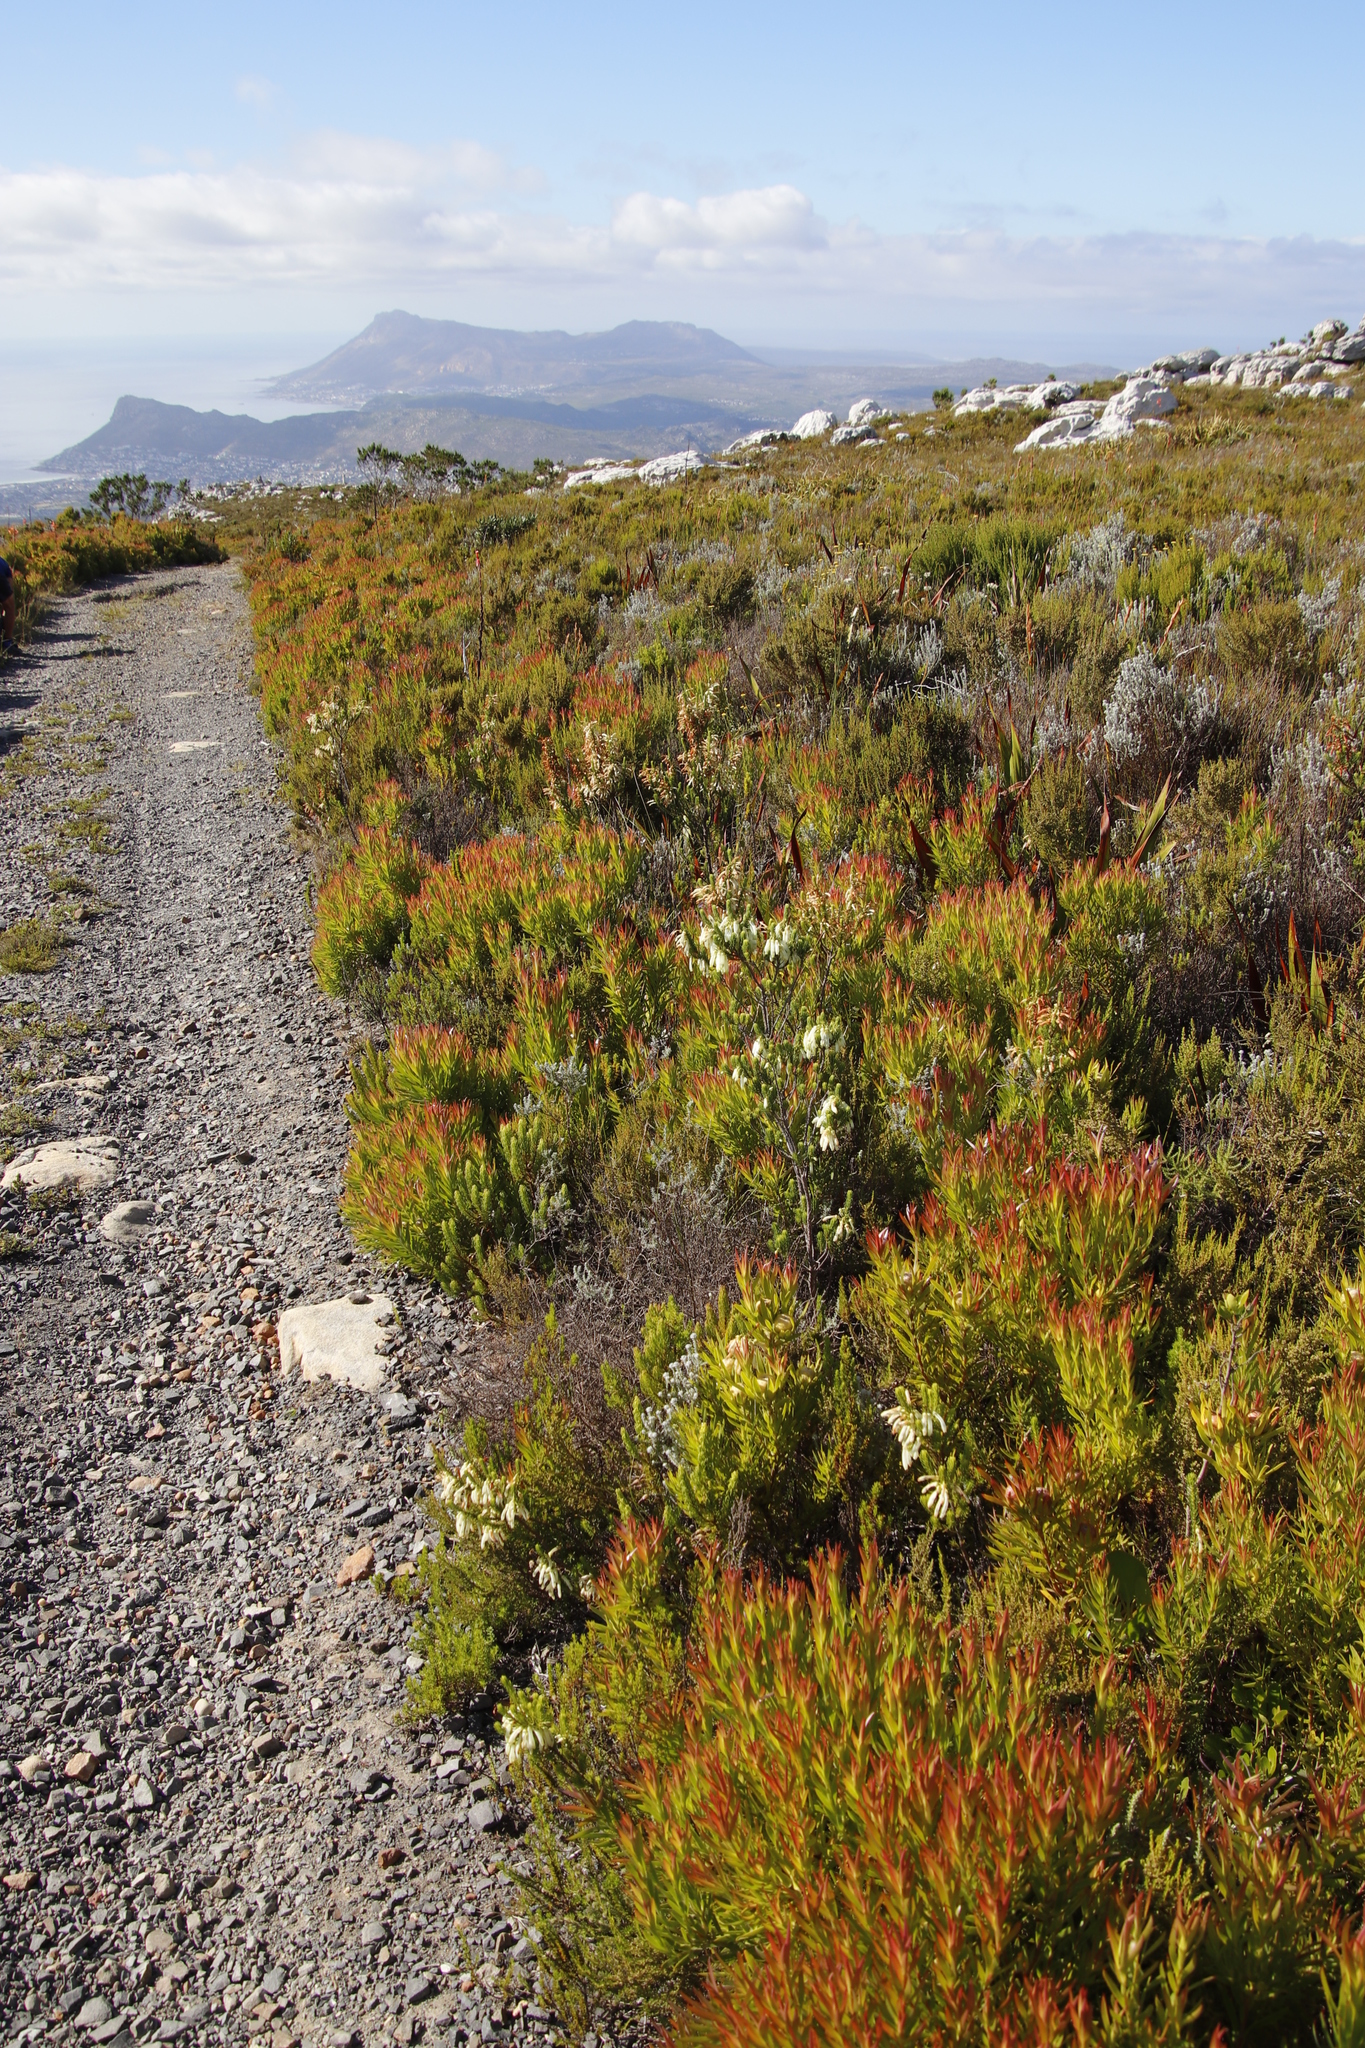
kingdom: Plantae
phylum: Tracheophyta
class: Magnoliopsida
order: Ericales
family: Ericaceae
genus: Erica
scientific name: Erica mammosa
